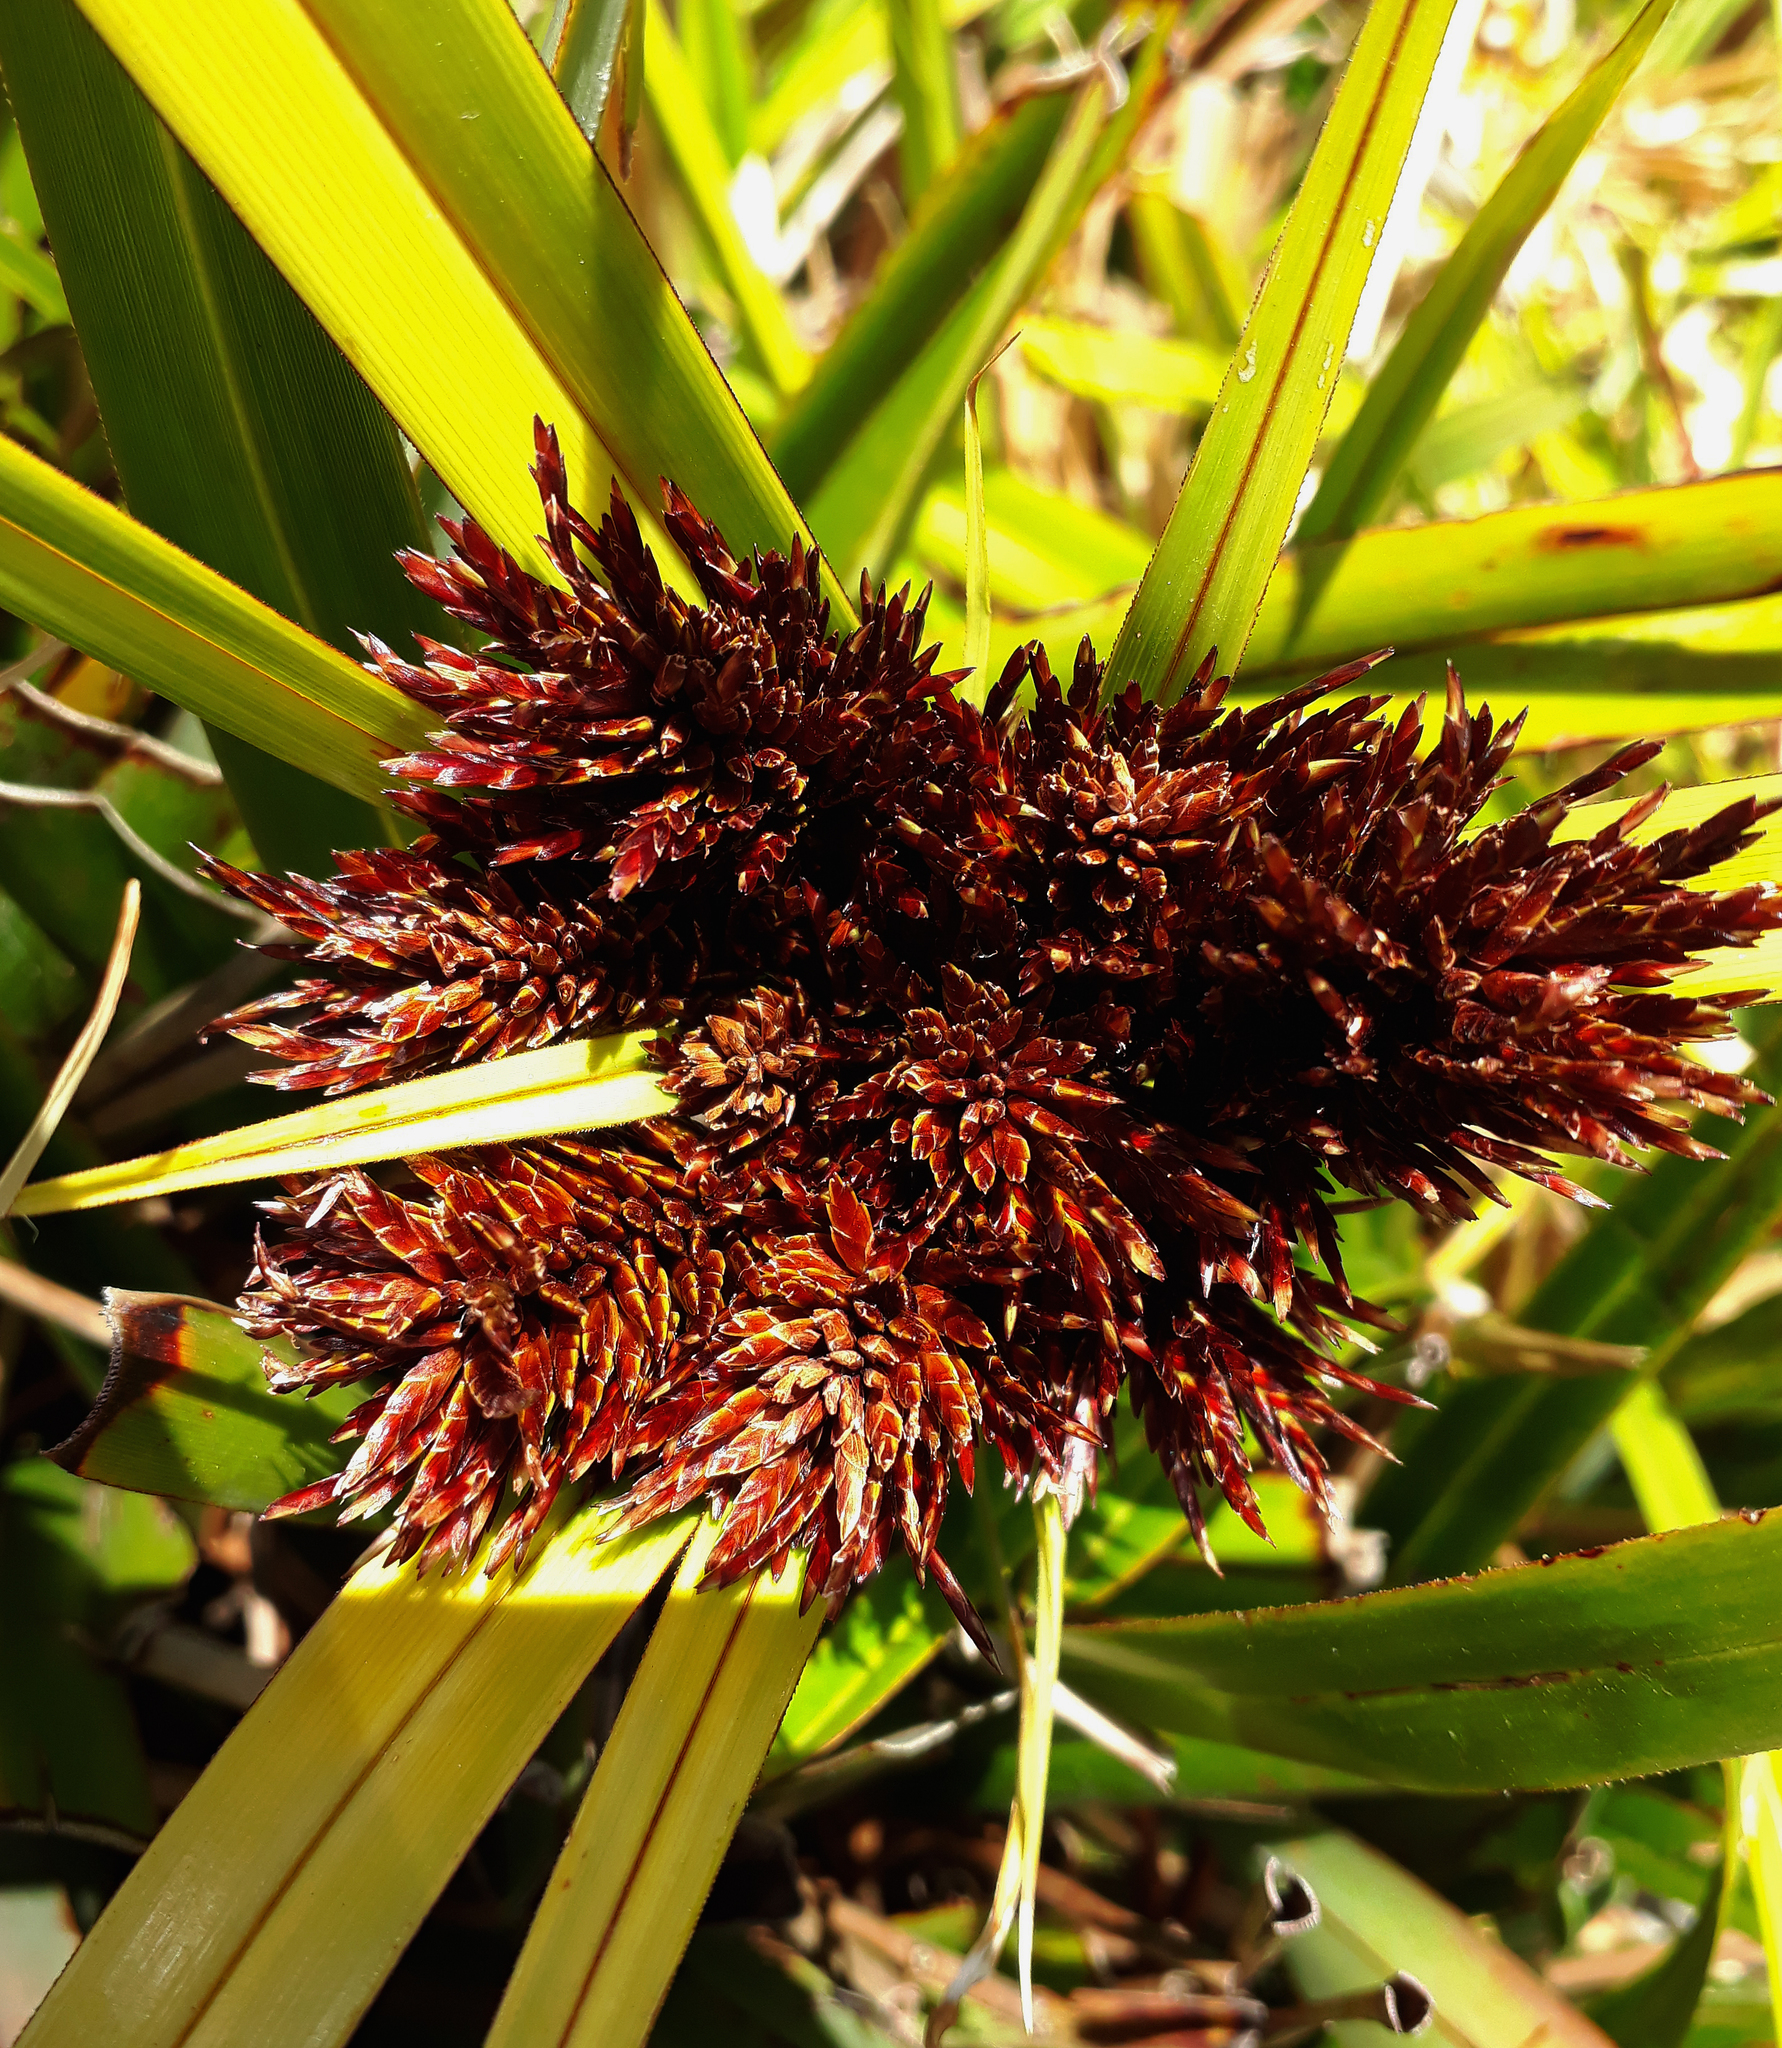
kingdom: Fungi
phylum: Basidiomycota
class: Microbotryomycetes
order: Microbotryales
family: Microbotryaceae
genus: Bauerago
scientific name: Bauerago gardneri
